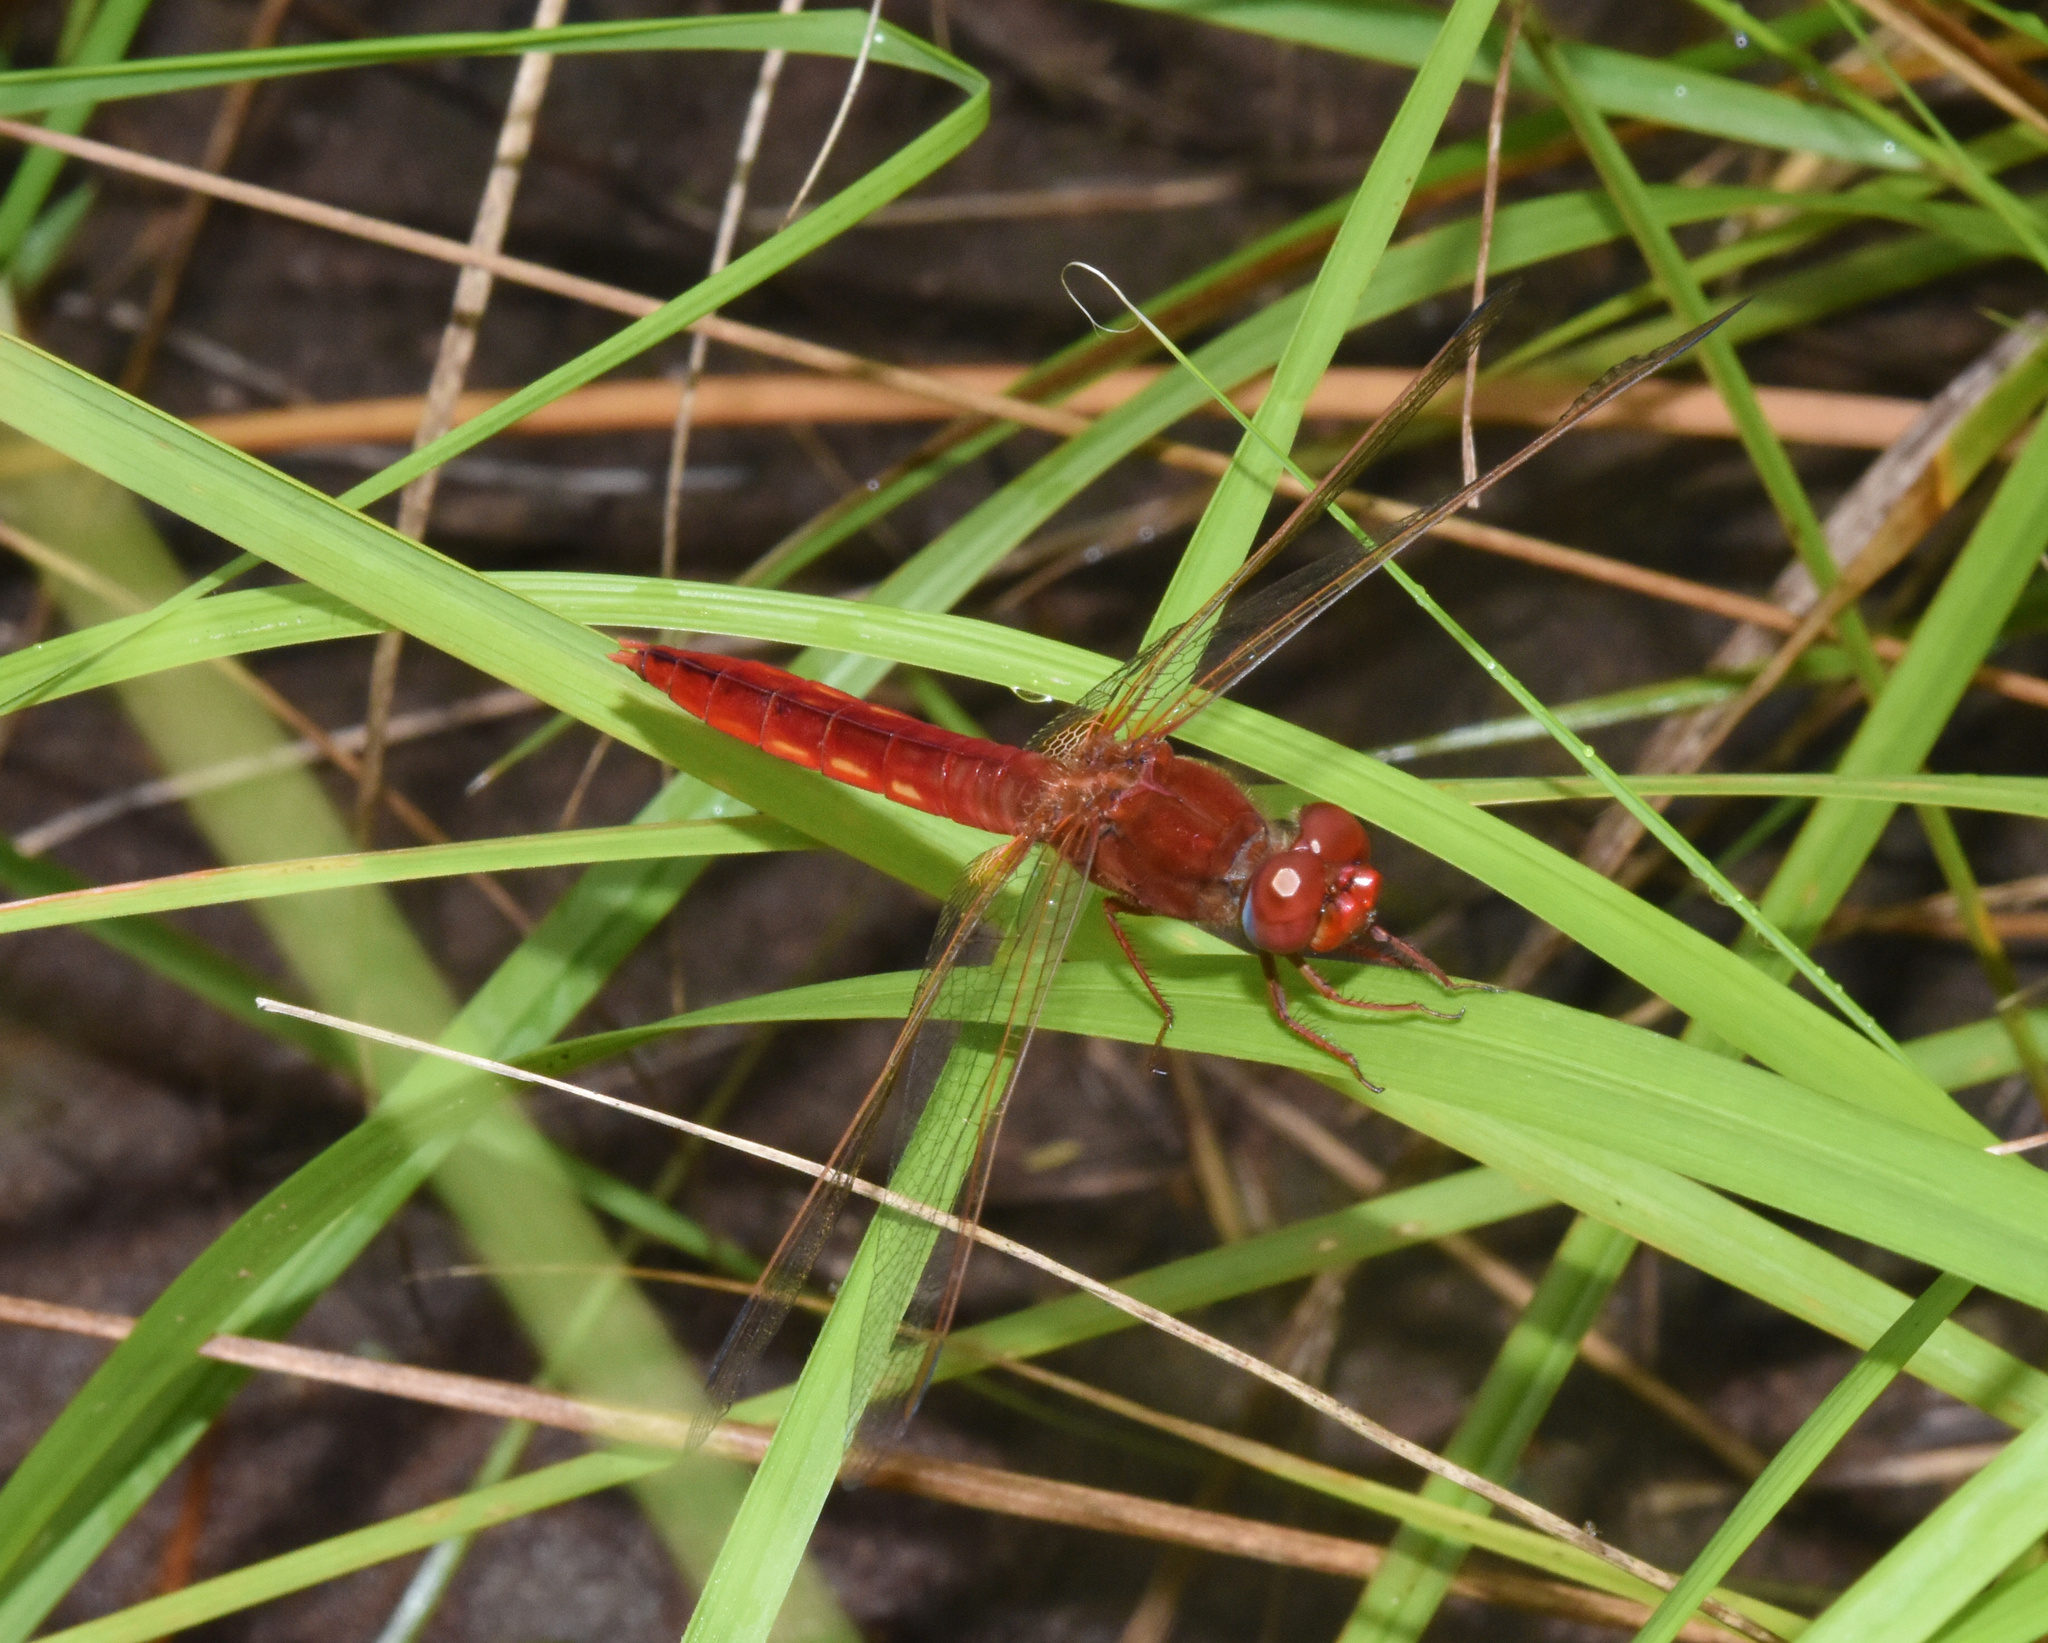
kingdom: Animalia
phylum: Arthropoda
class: Insecta
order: Odonata
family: Libellulidae
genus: Crocothemis
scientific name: Crocothemis erythraea
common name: Scarlet dragonfly
